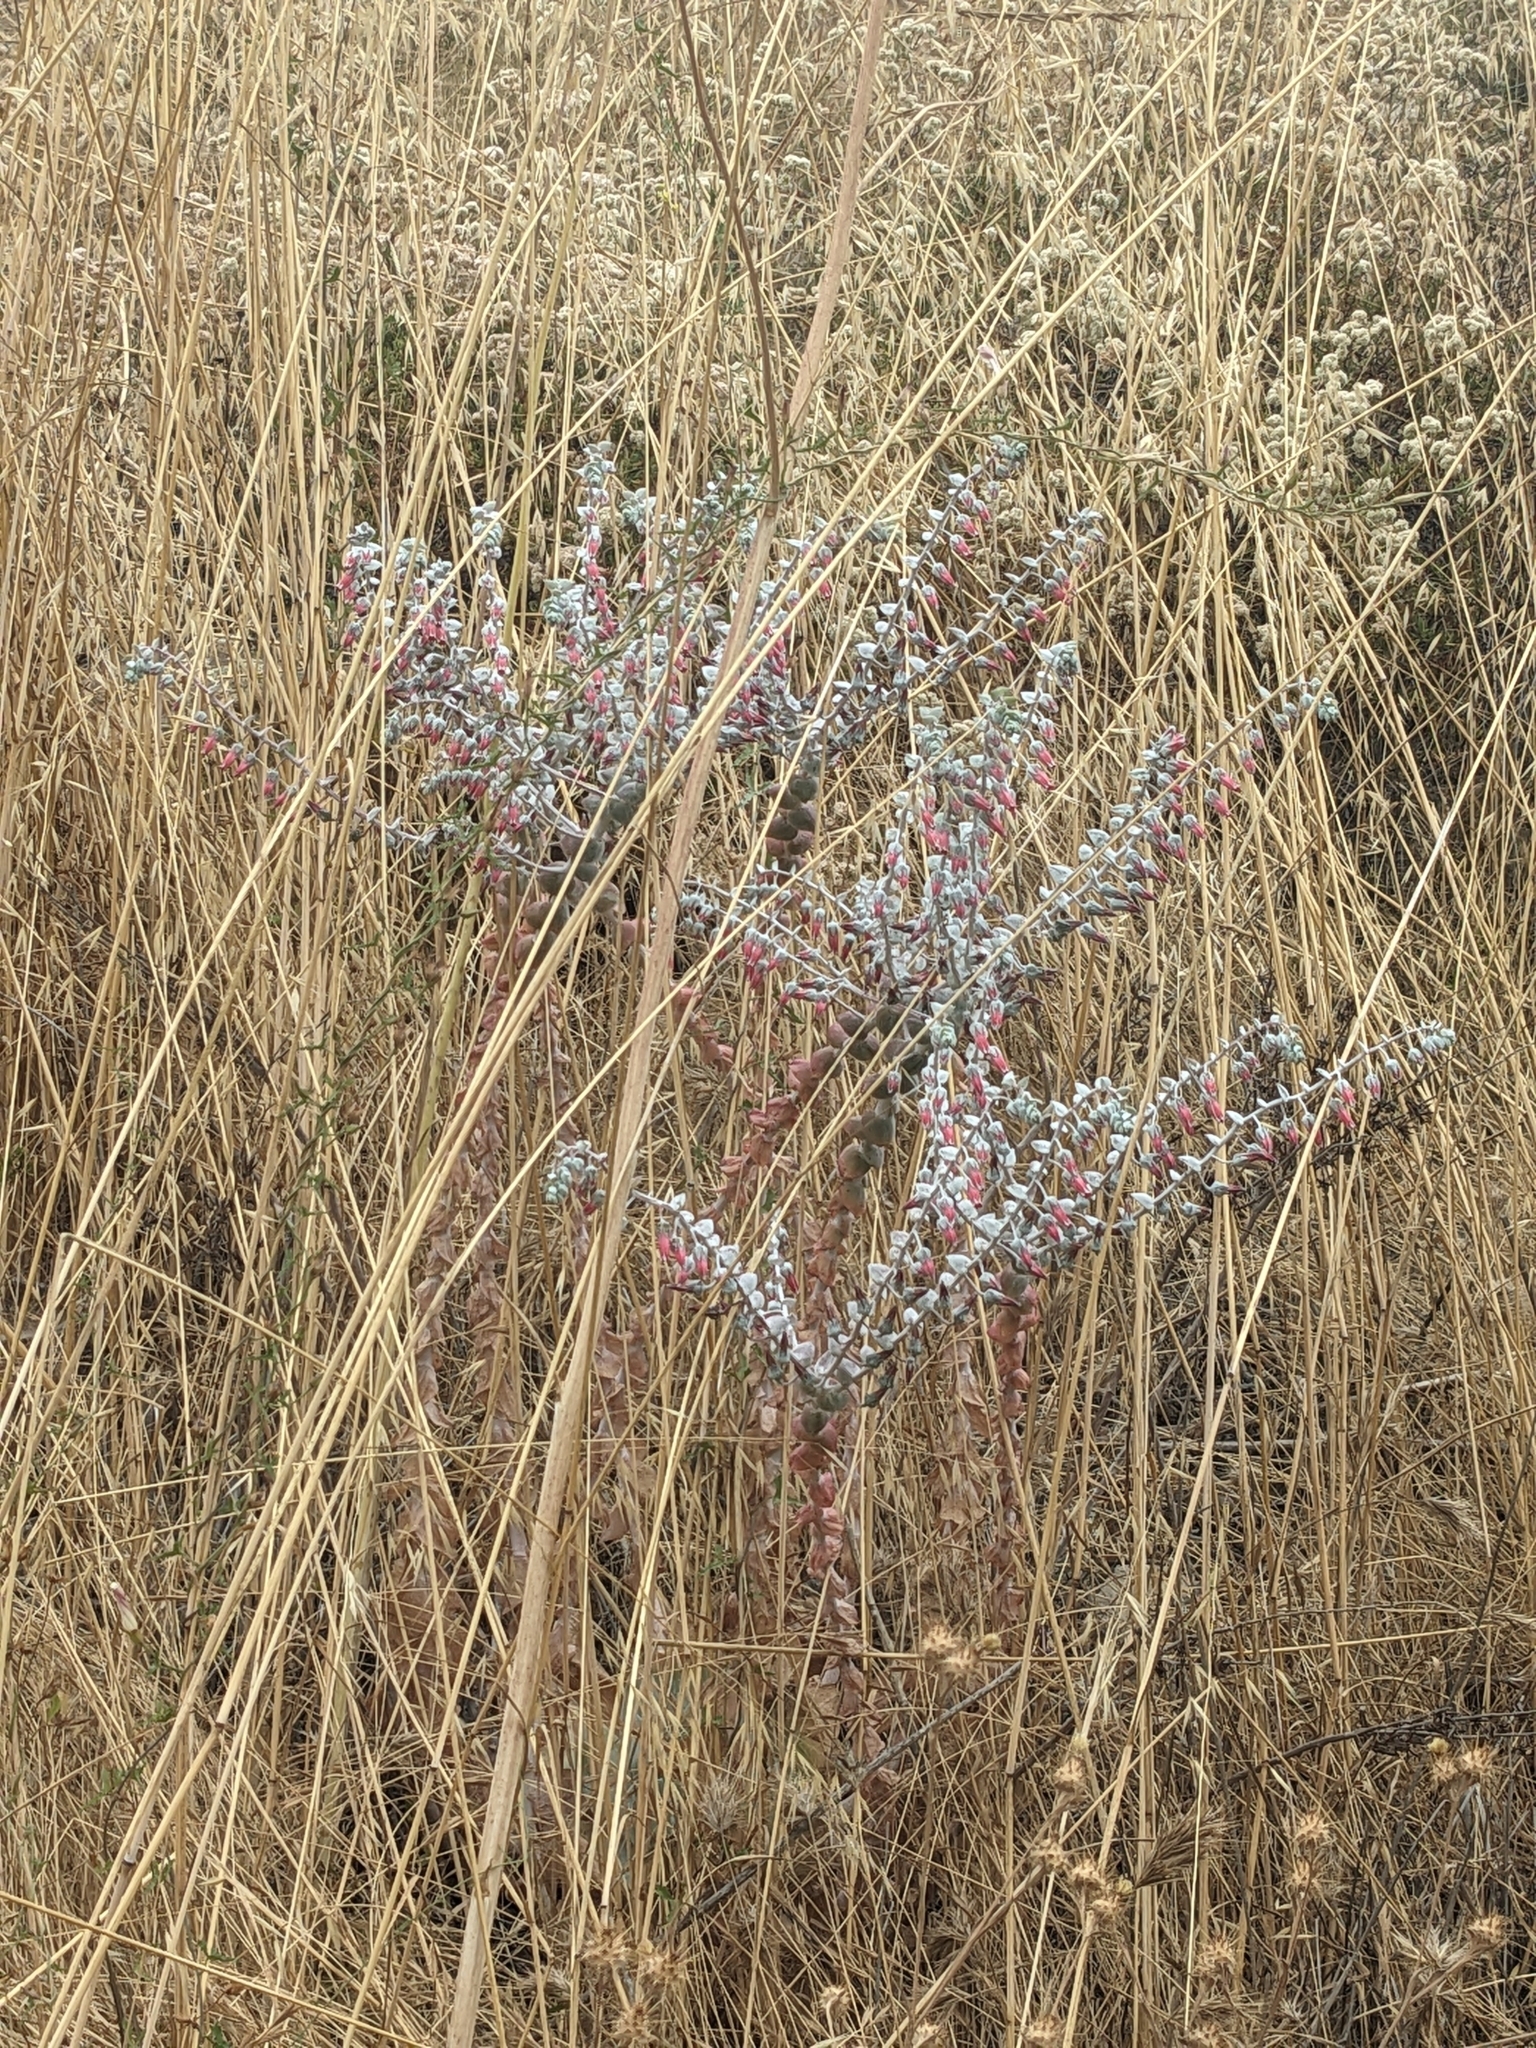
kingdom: Plantae
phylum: Tracheophyta
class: Magnoliopsida
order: Saxifragales
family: Crassulaceae
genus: Dudleya
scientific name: Dudleya pulverulenta
